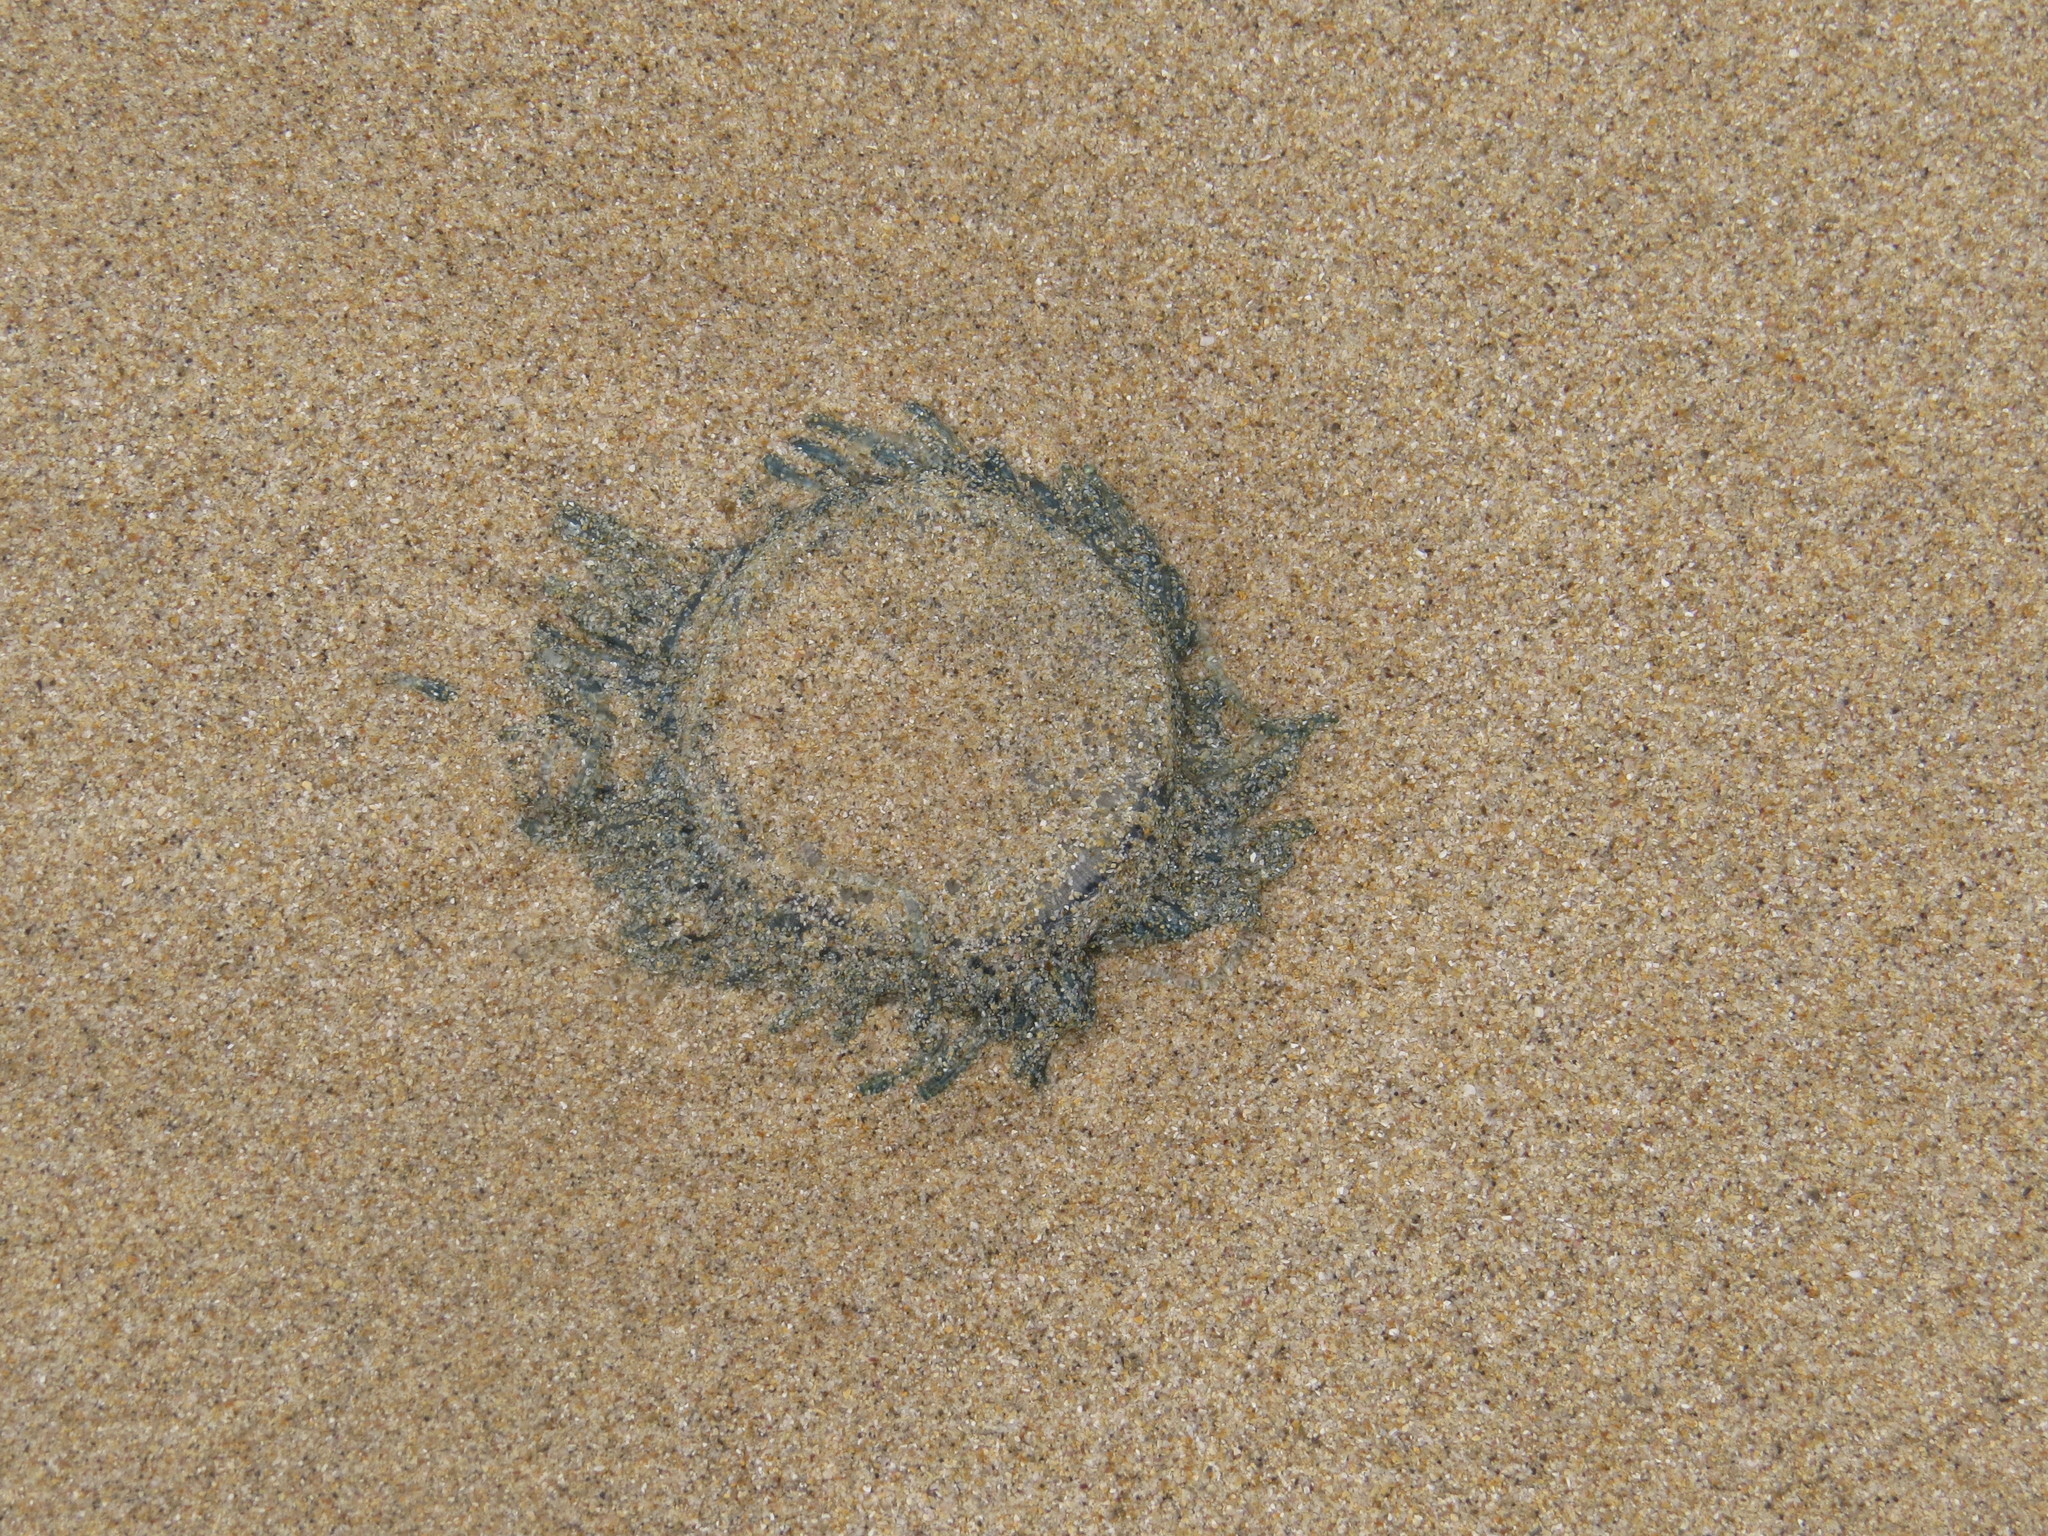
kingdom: Animalia
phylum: Cnidaria
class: Hydrozoa
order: Anthoathecata
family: Porpitidae
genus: Porpita
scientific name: Porpita porpita
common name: Blue button
